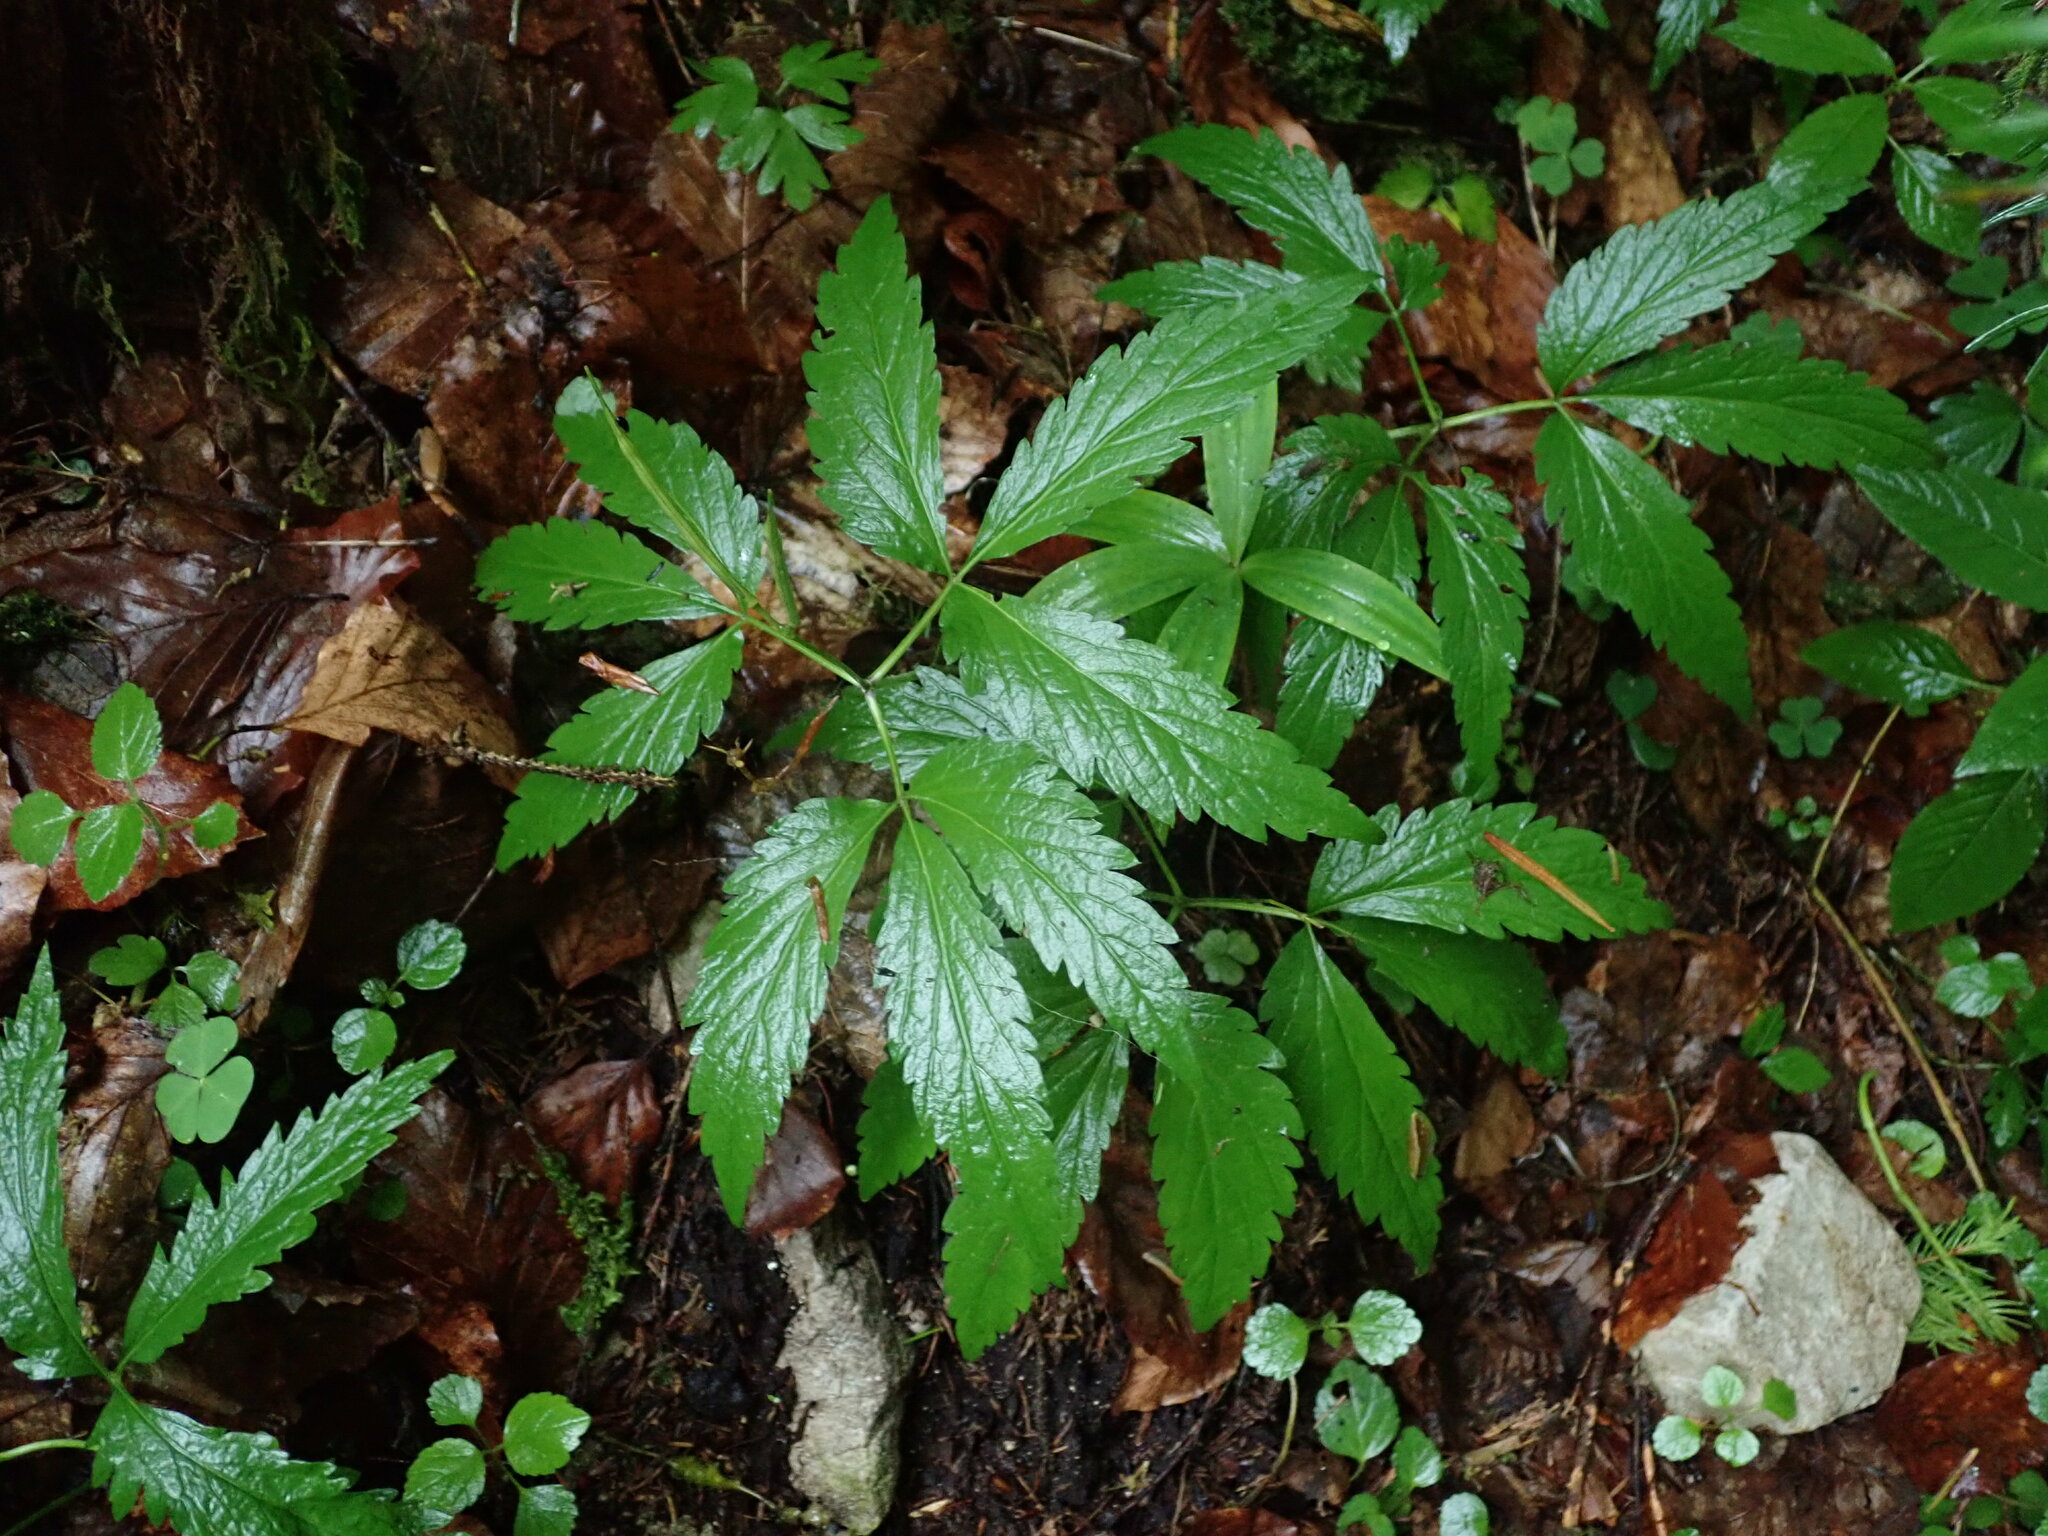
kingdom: Plantae
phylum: Tracheophyta
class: Magnoliopsida
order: Brassicales
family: Brassicaceae
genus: Cardamine
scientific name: Cardamine glanduligera
